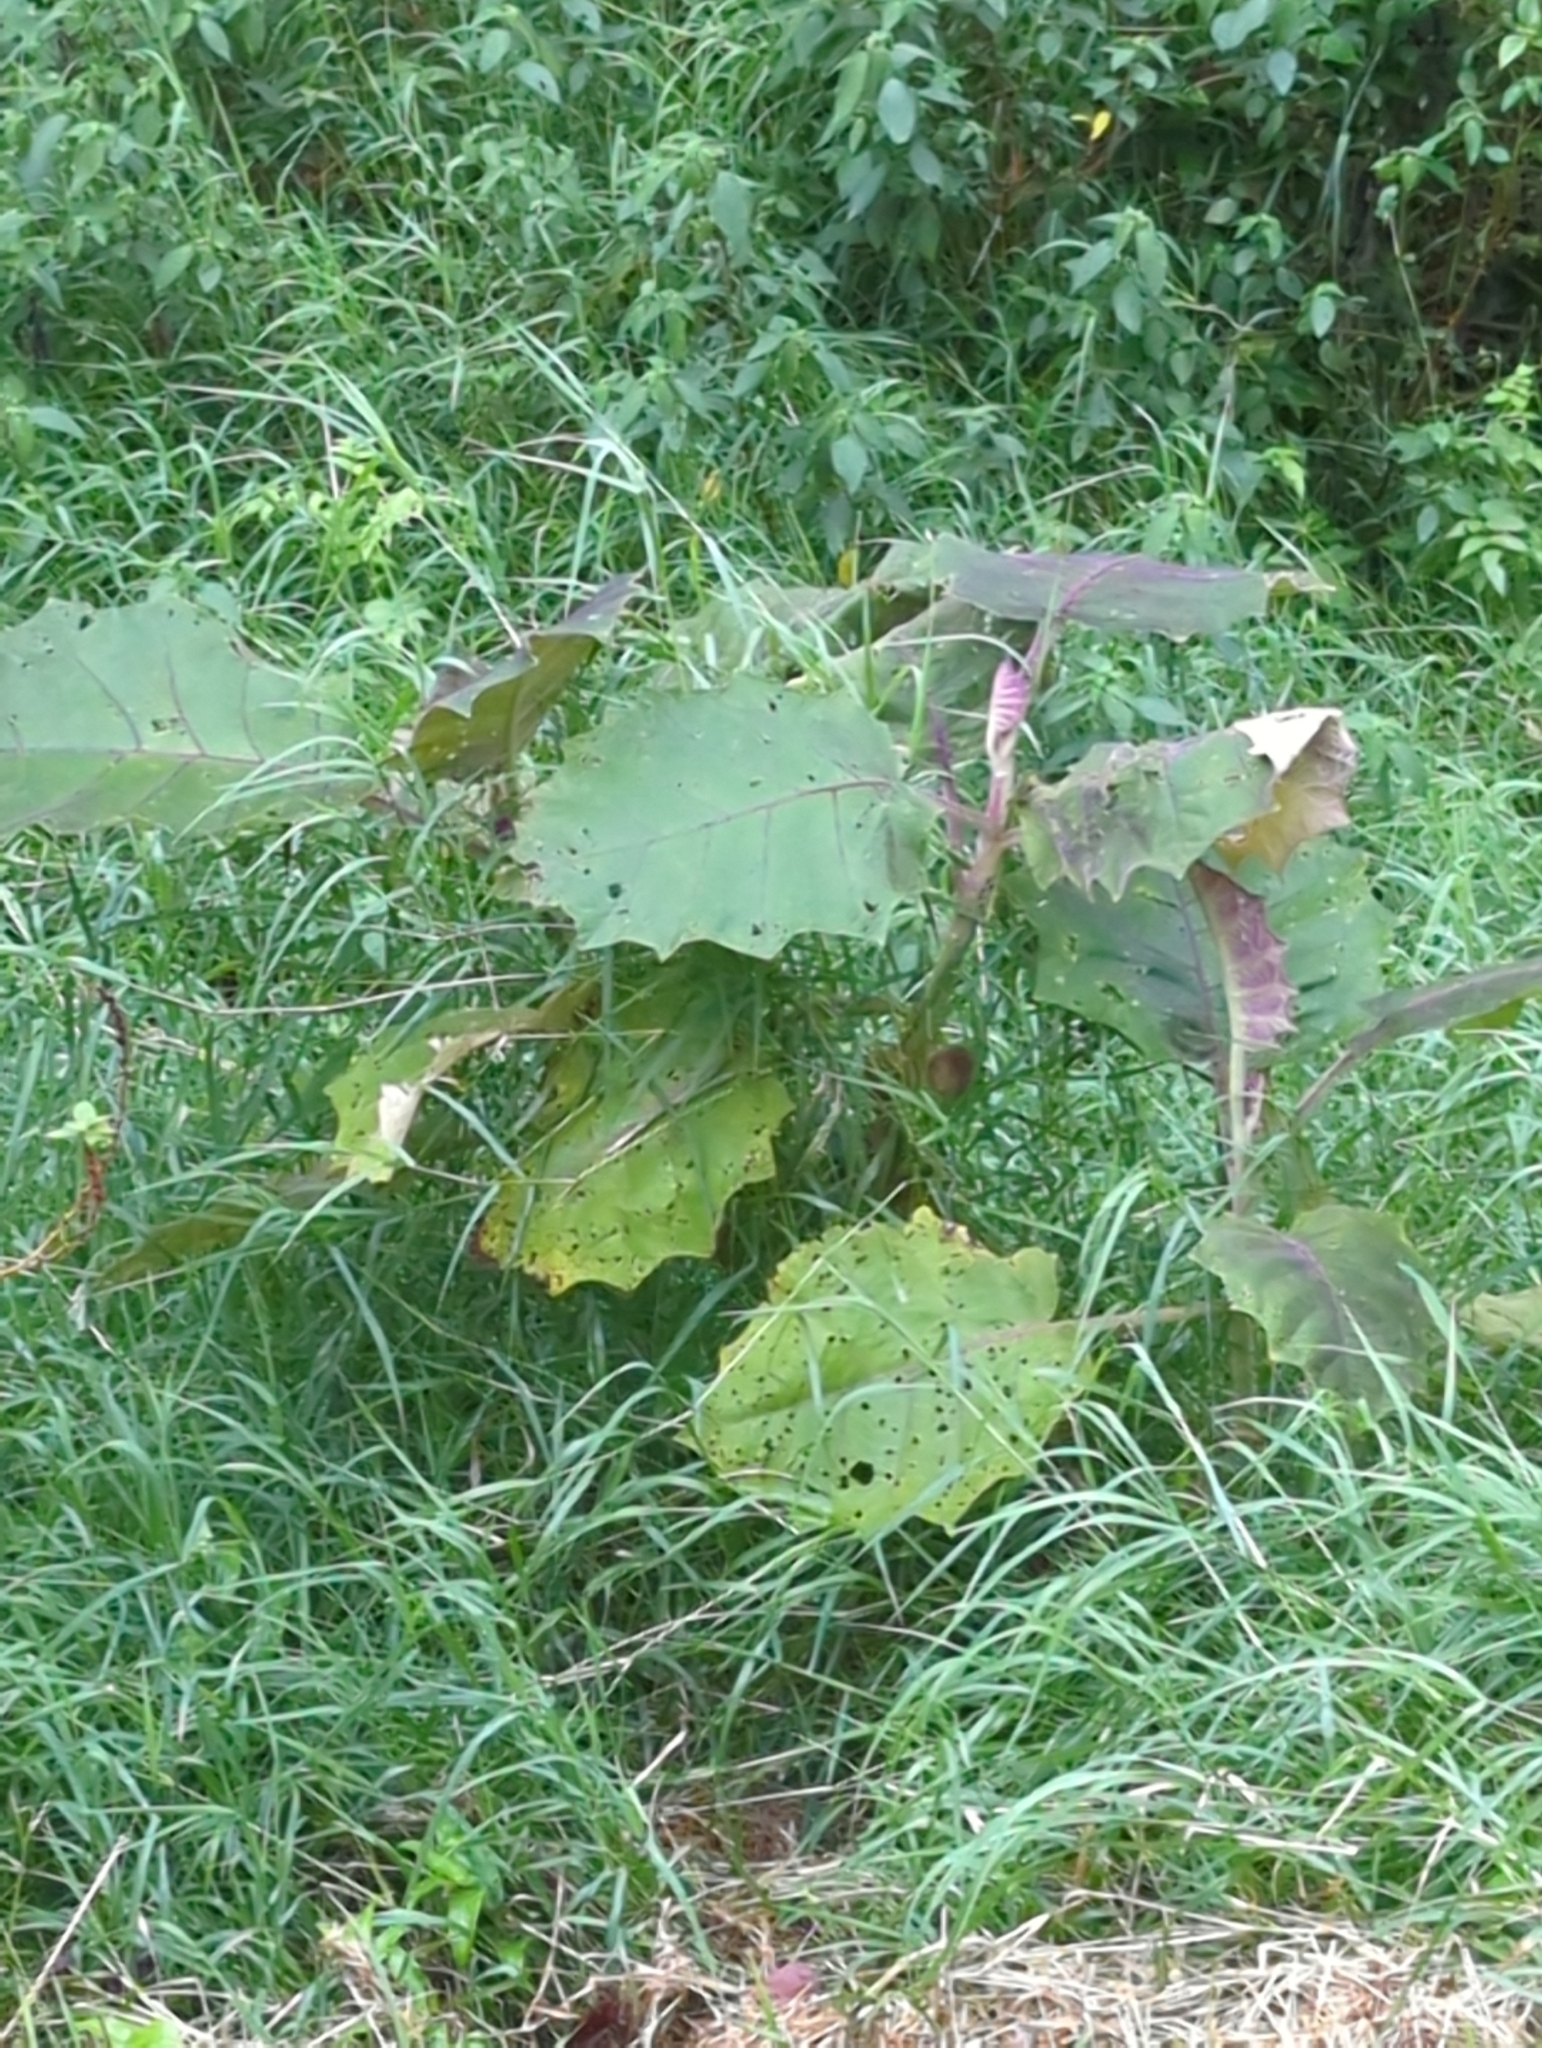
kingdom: Plantae
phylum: Tracheophyta
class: Magnoliopsida
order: Solanales
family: Solanaceae
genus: Solanum
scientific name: Solanum quitoense
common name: Quito-orange
